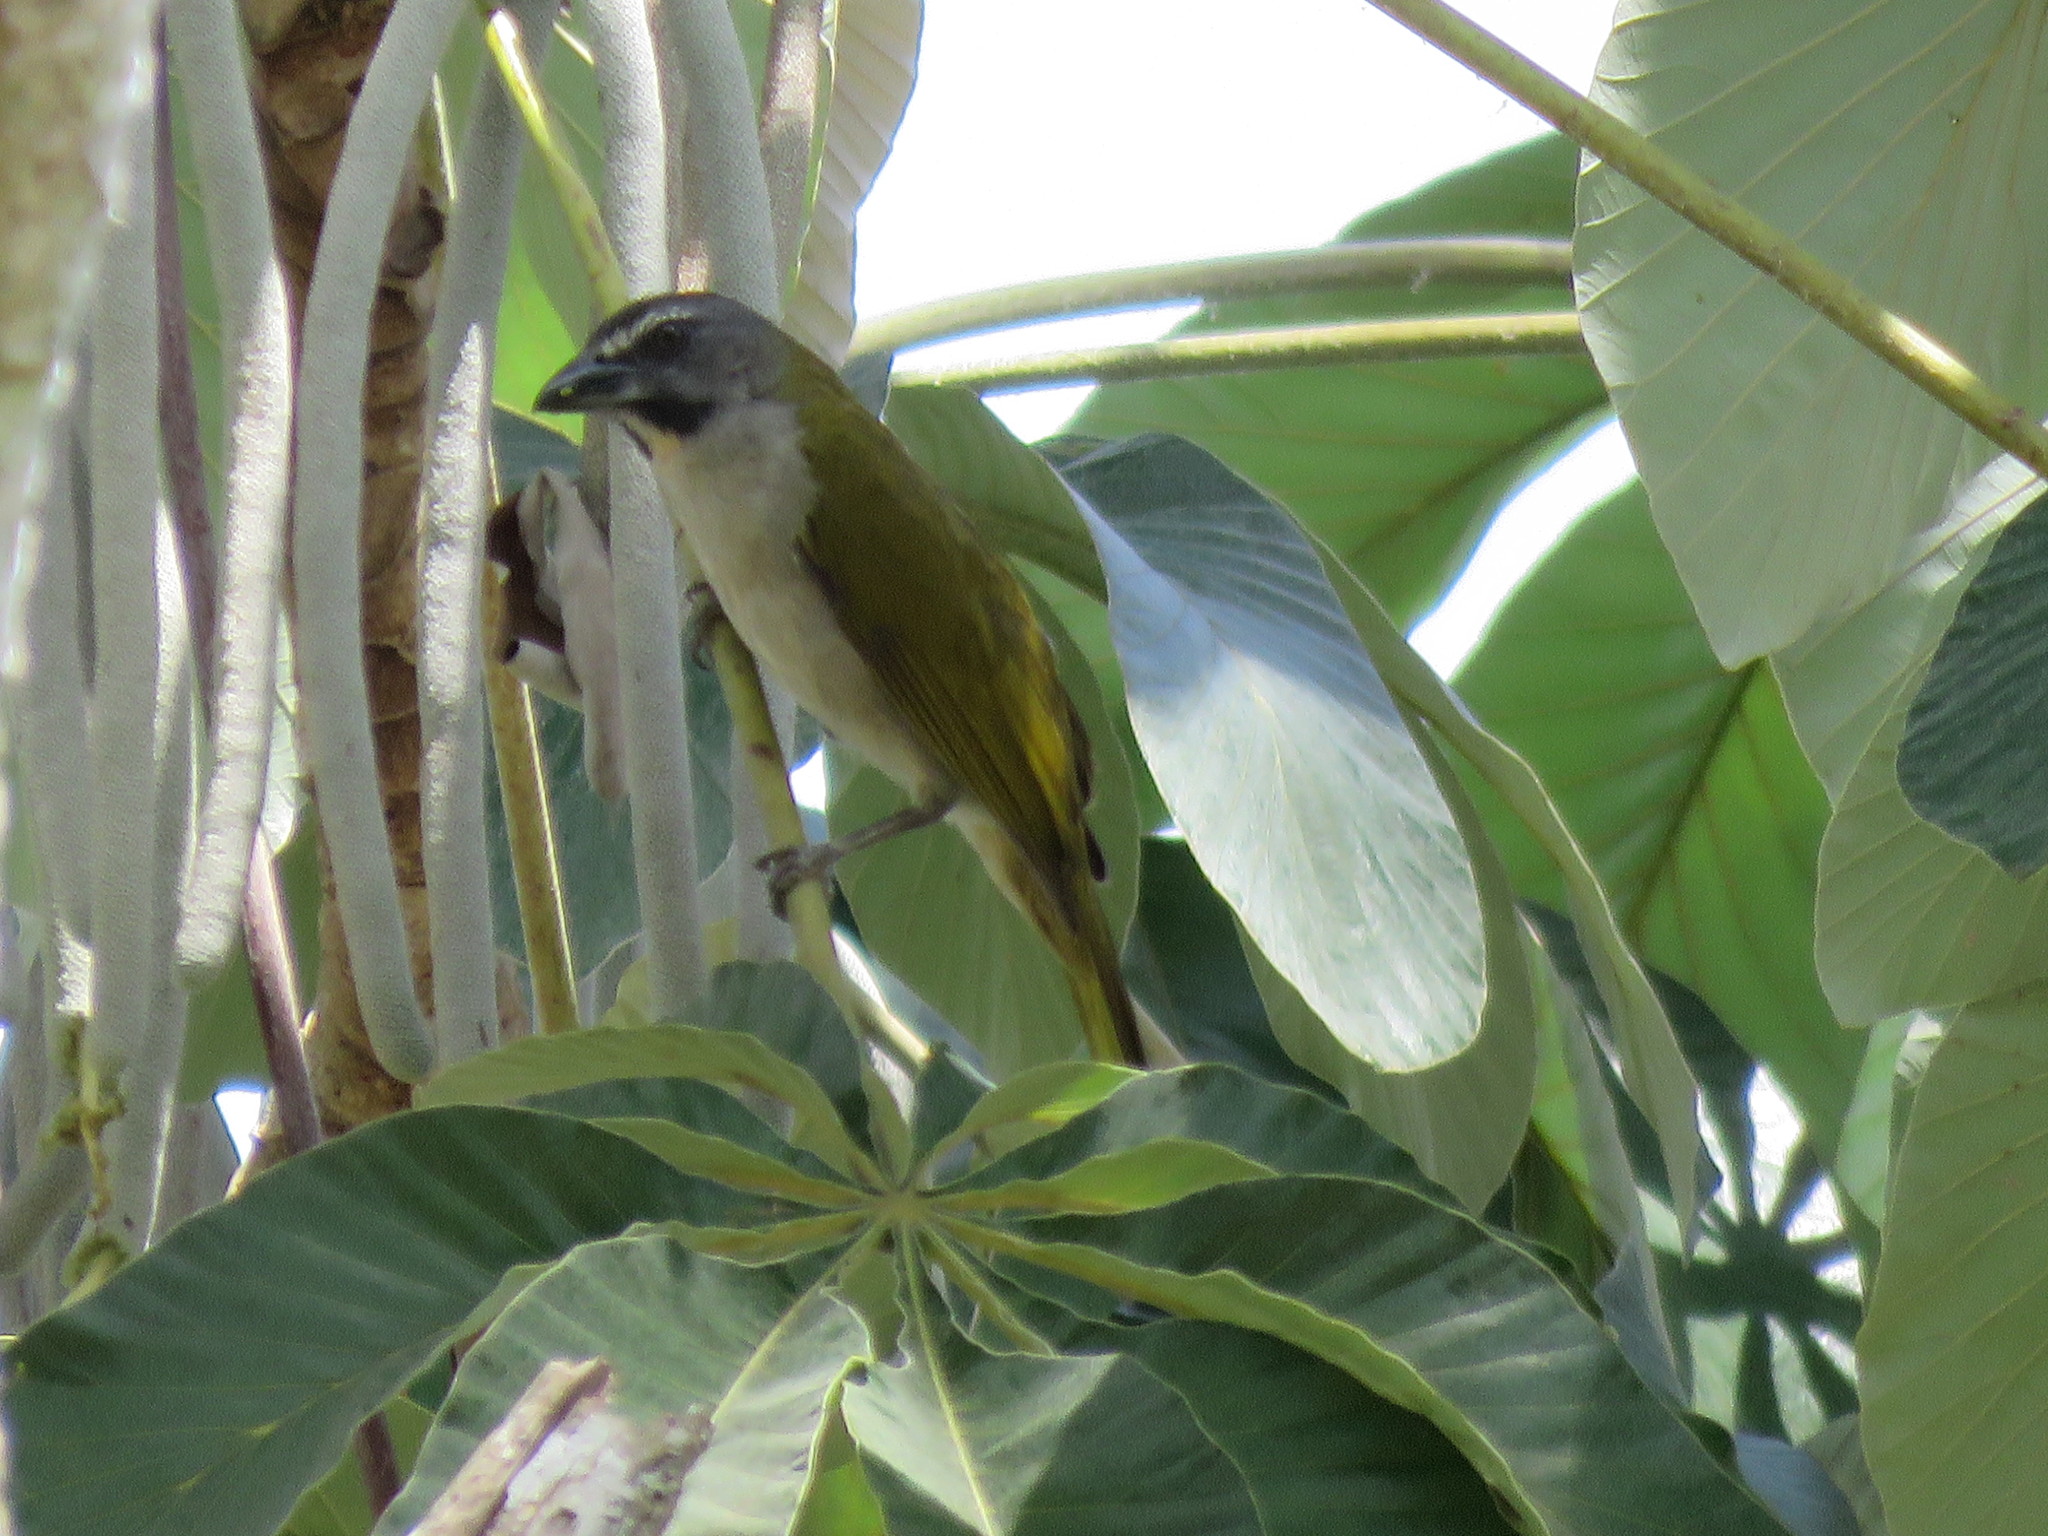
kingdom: Animalia
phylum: Chordata
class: Aves
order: Passeriformes
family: Thraupidae
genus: Saltator
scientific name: Saltator maximus
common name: Buff-throated saltator
